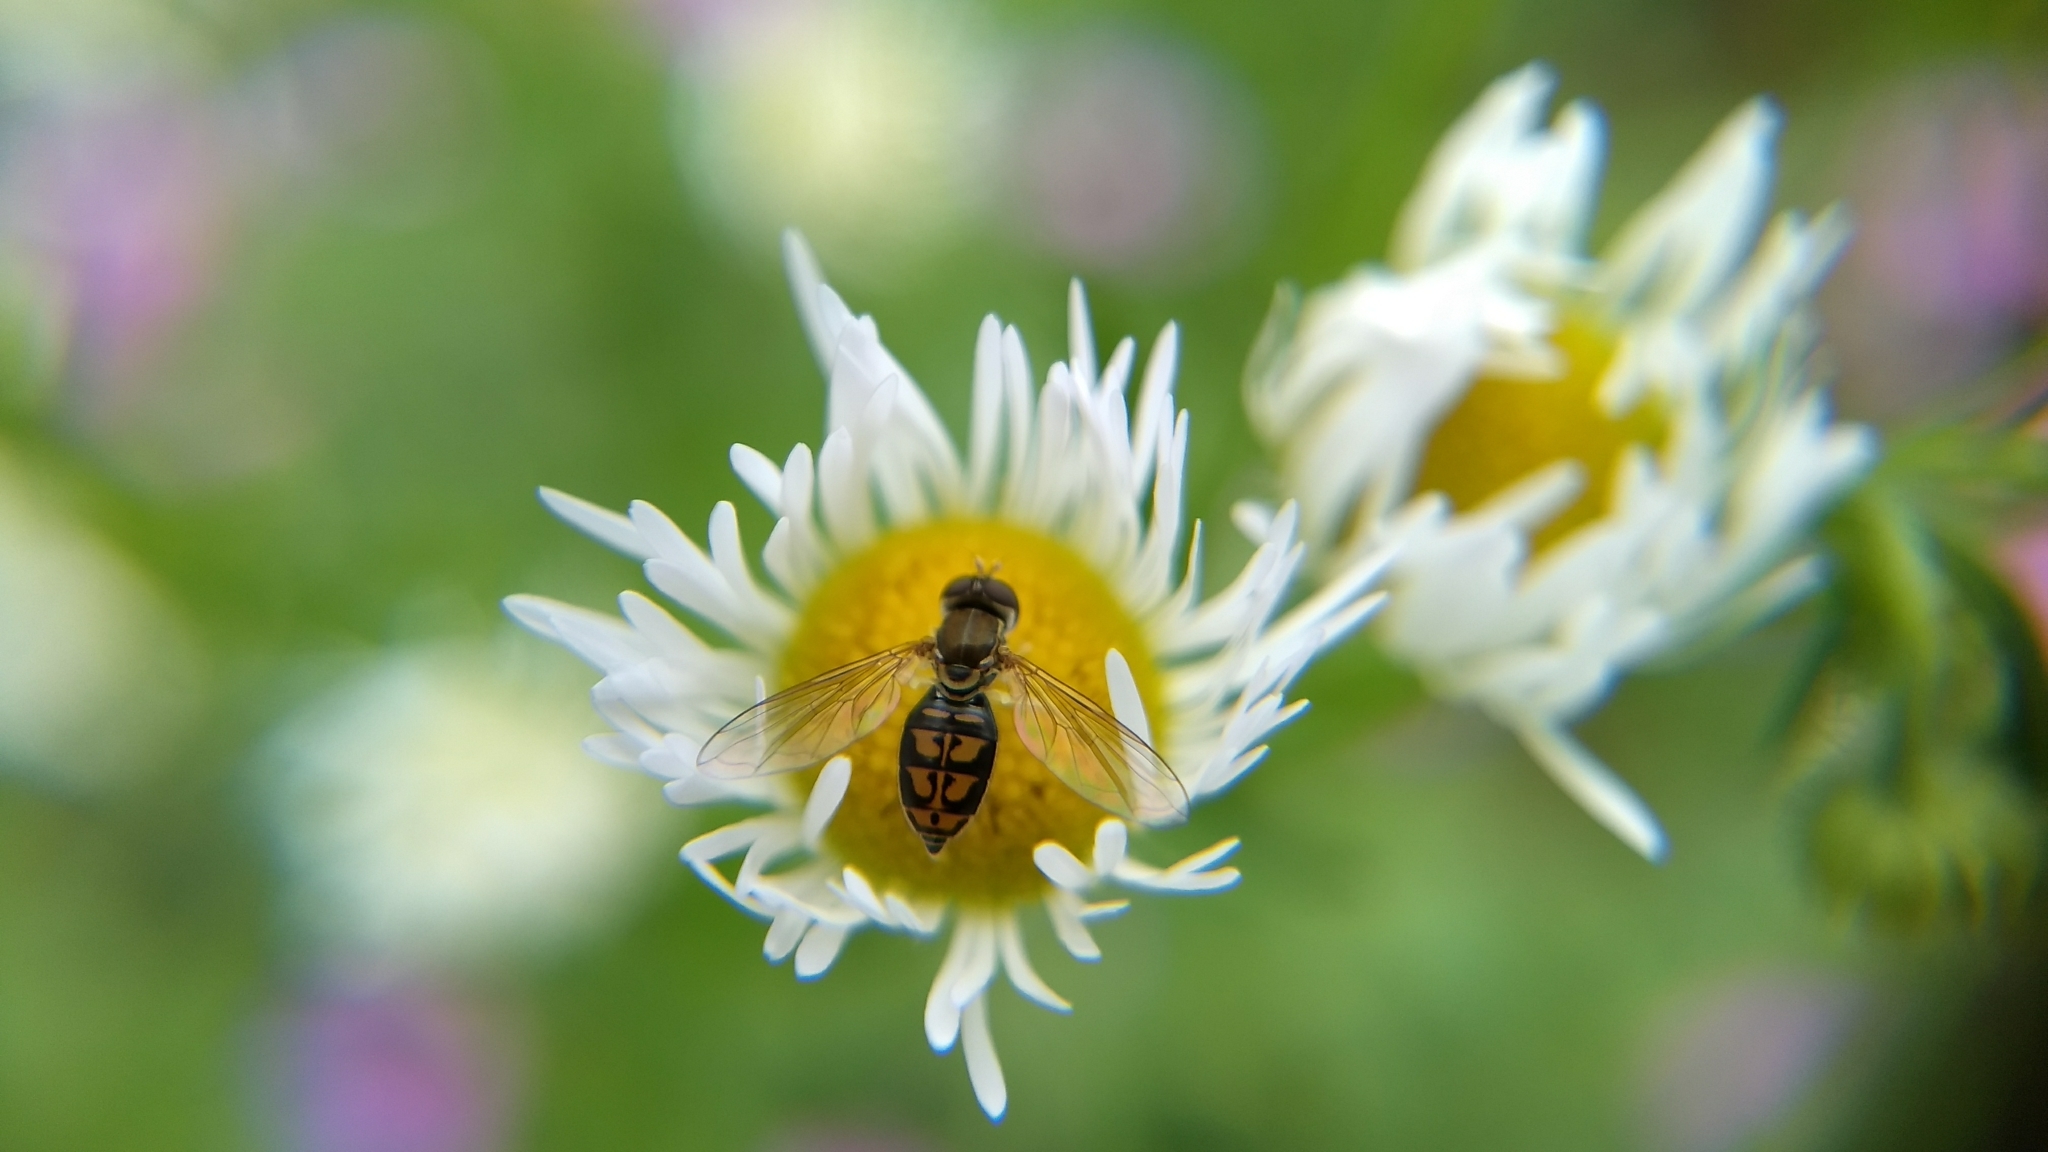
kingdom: Animalia
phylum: Arthropoda
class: Insecta
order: Diptera
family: Syrphidae
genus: Toxomerus
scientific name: Toxomerus marginatus
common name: Syrphid fly
